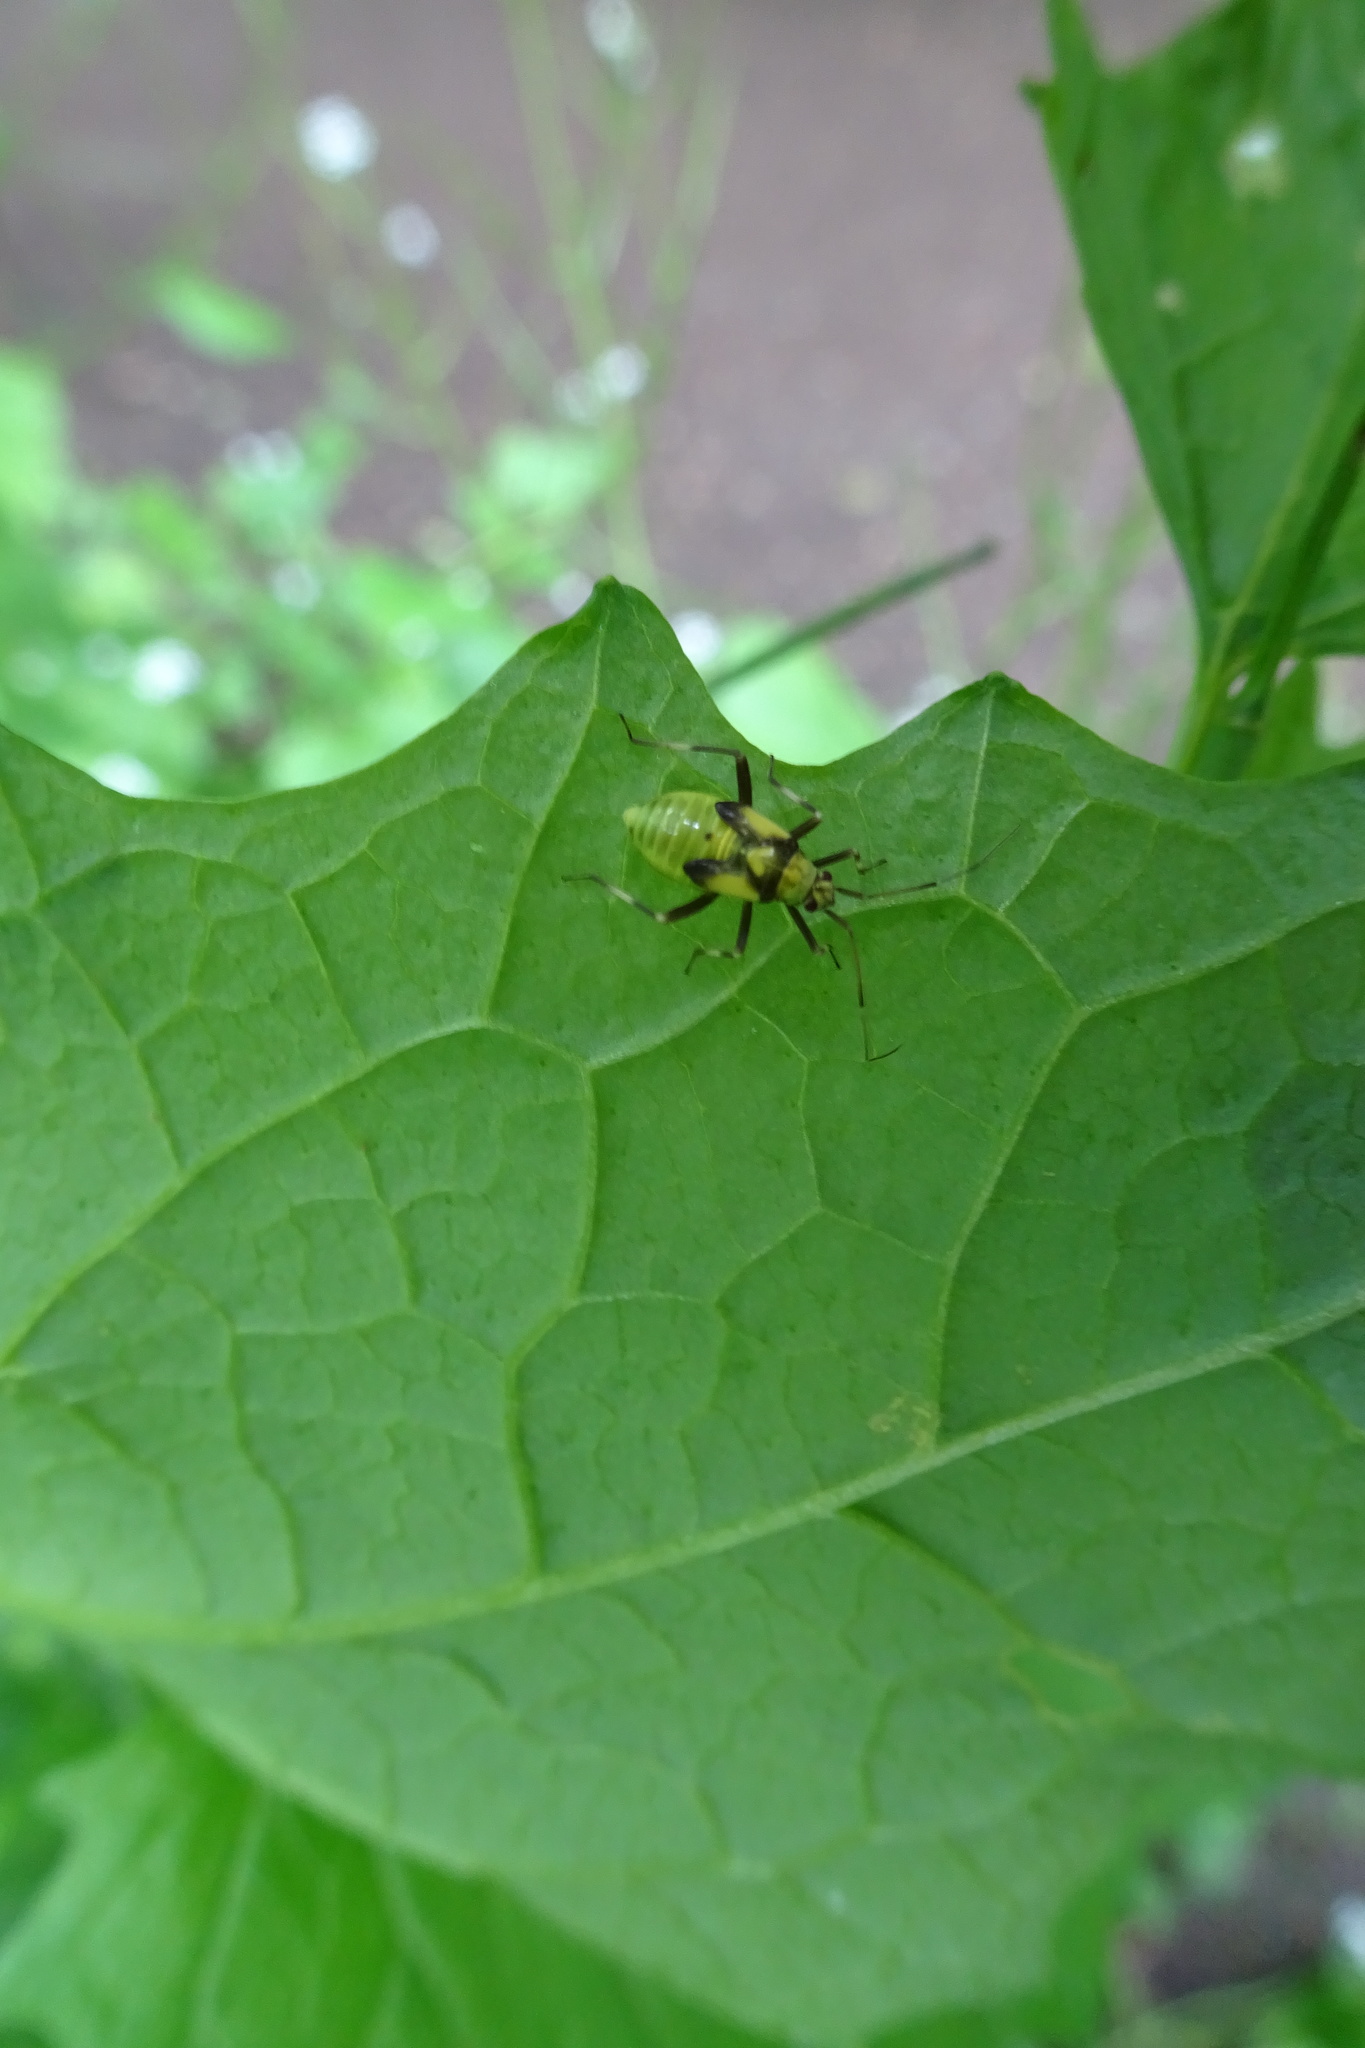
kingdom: Animalia
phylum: Arthropoda
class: Insecta
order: Hemiptera
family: Miridae
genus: Calocoris
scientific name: Calocoris alpestris
